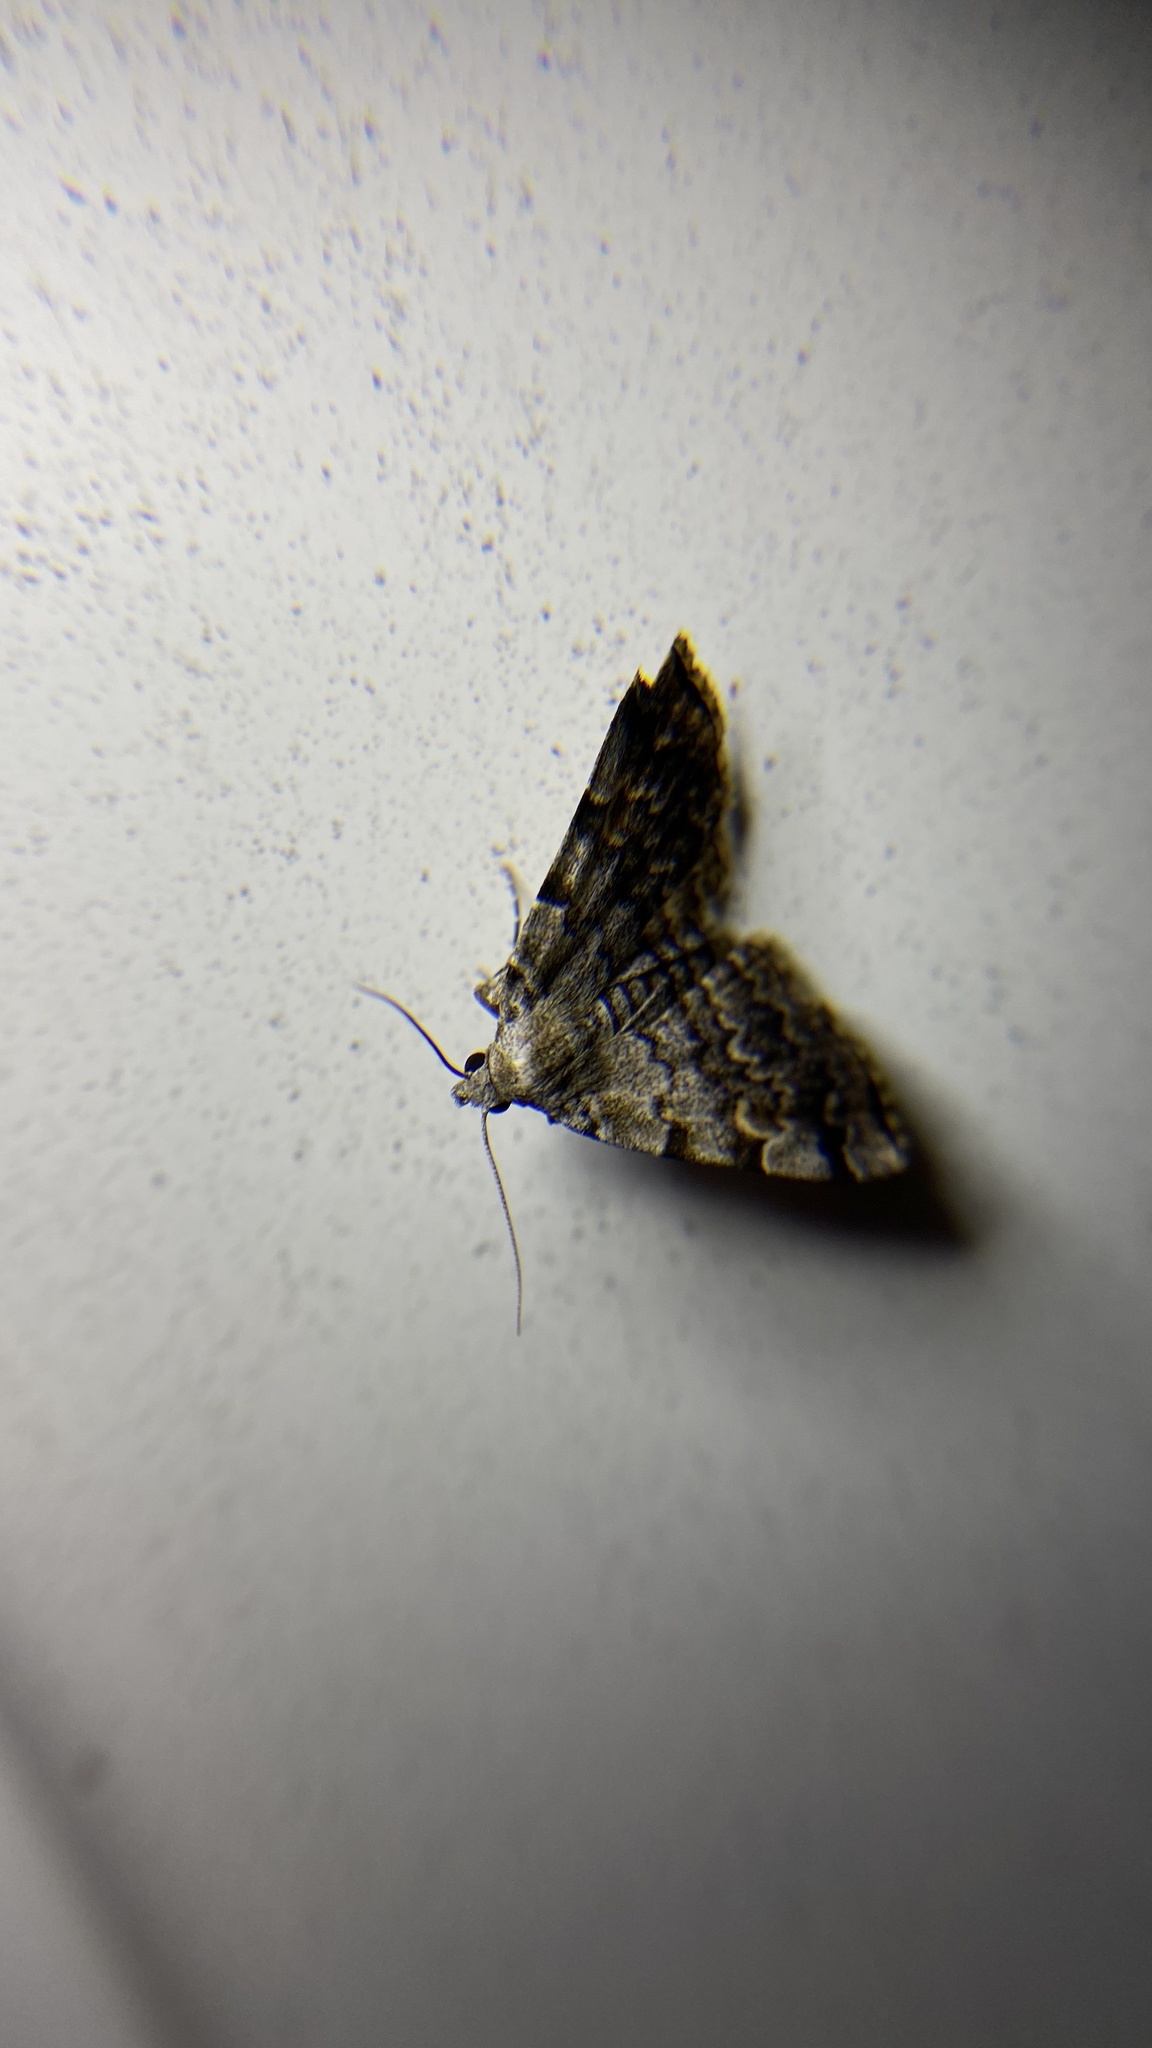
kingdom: Animalia
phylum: Arthropoda
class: Insecta
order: Lepidoptera
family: Erebidae
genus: Idia
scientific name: Idia americalis
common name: American idia moth
